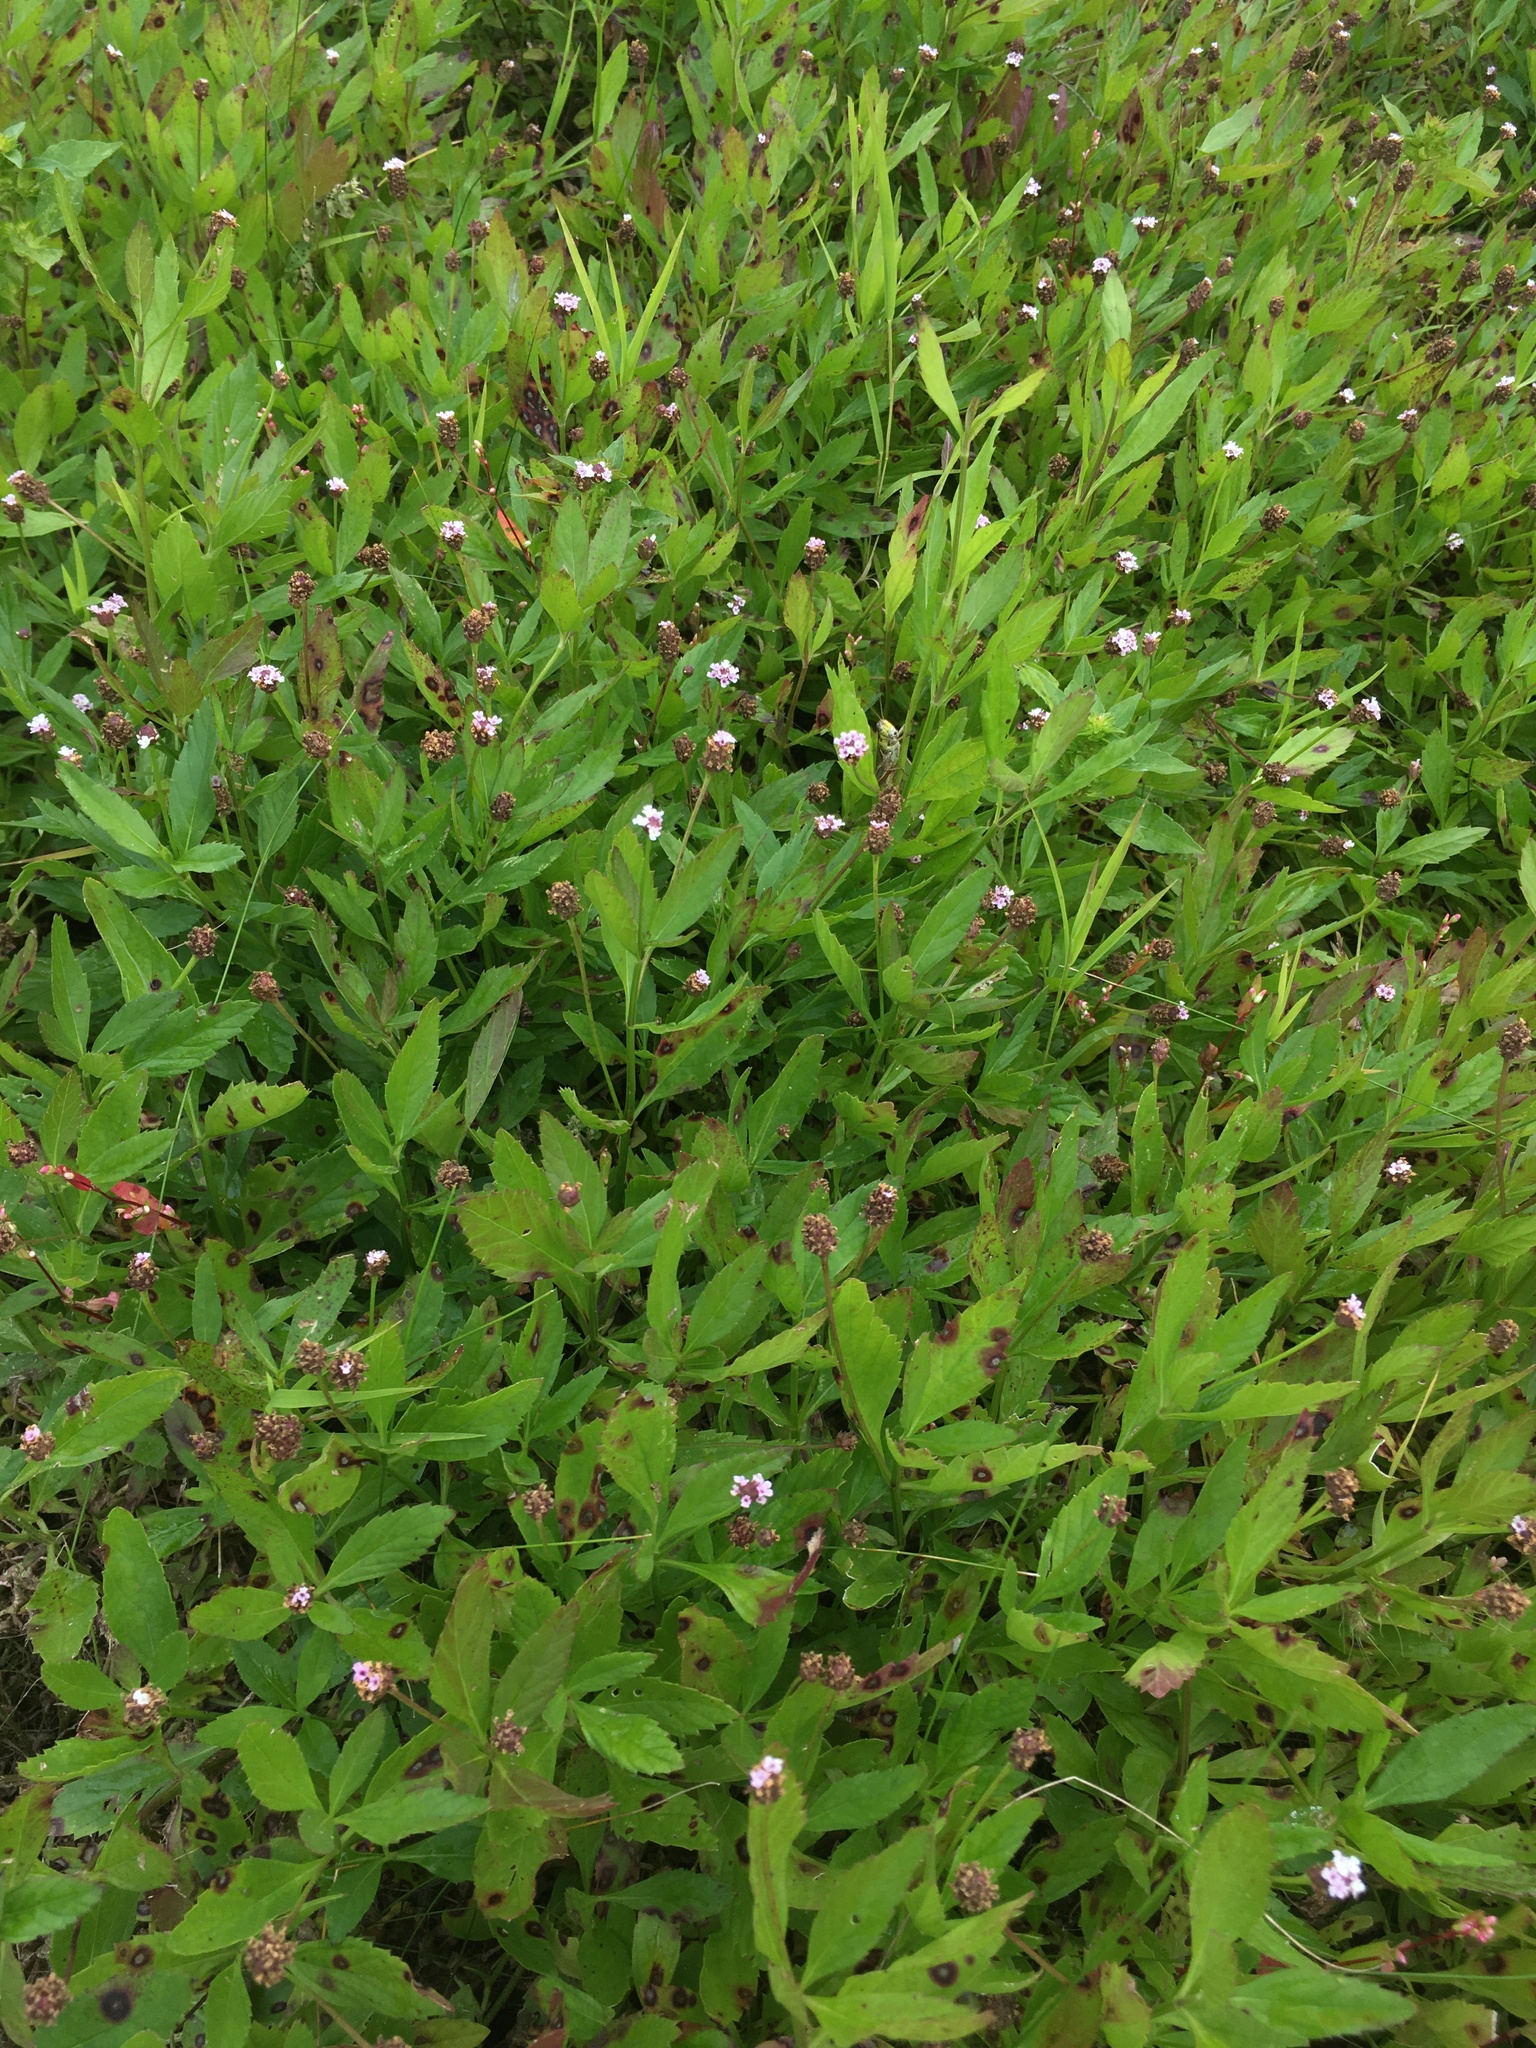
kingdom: Plantae
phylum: Tracheophyta
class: Magnoliopsida
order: Lamiales
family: Verbenaceae
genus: Phyla
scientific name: Phyla lanceolata
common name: Northern fogfruit
